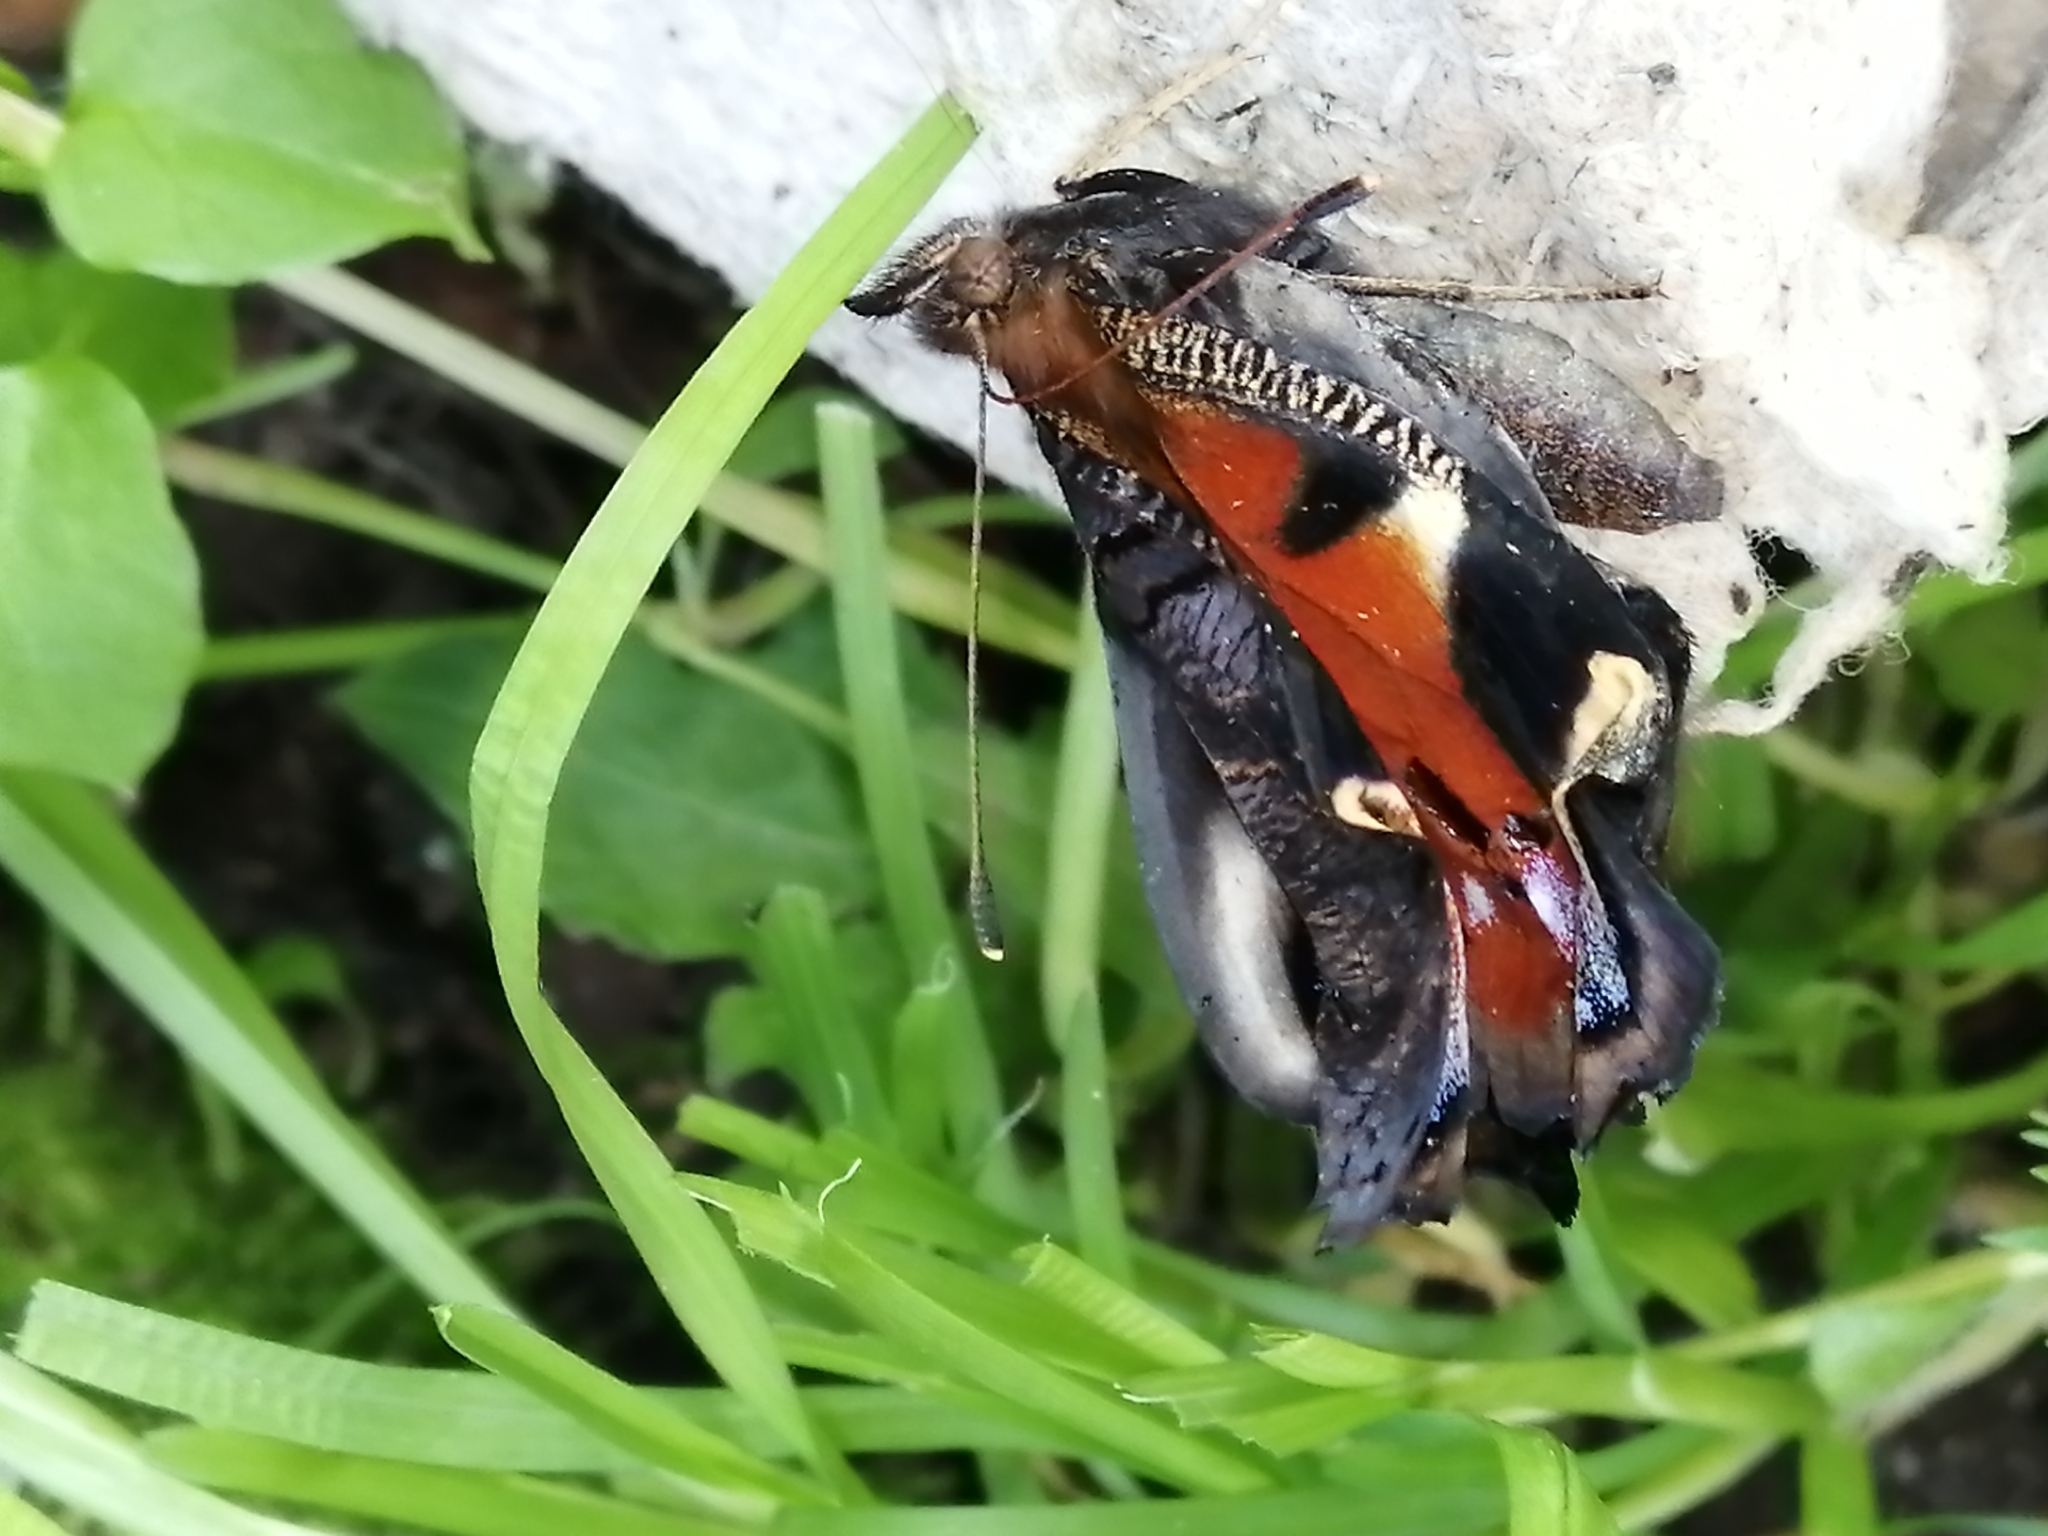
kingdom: Animalia
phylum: Arthropoda
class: Insecta
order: Lepidoptera
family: Nymphalidae
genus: Aglais
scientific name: Aglais io
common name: Peacock
